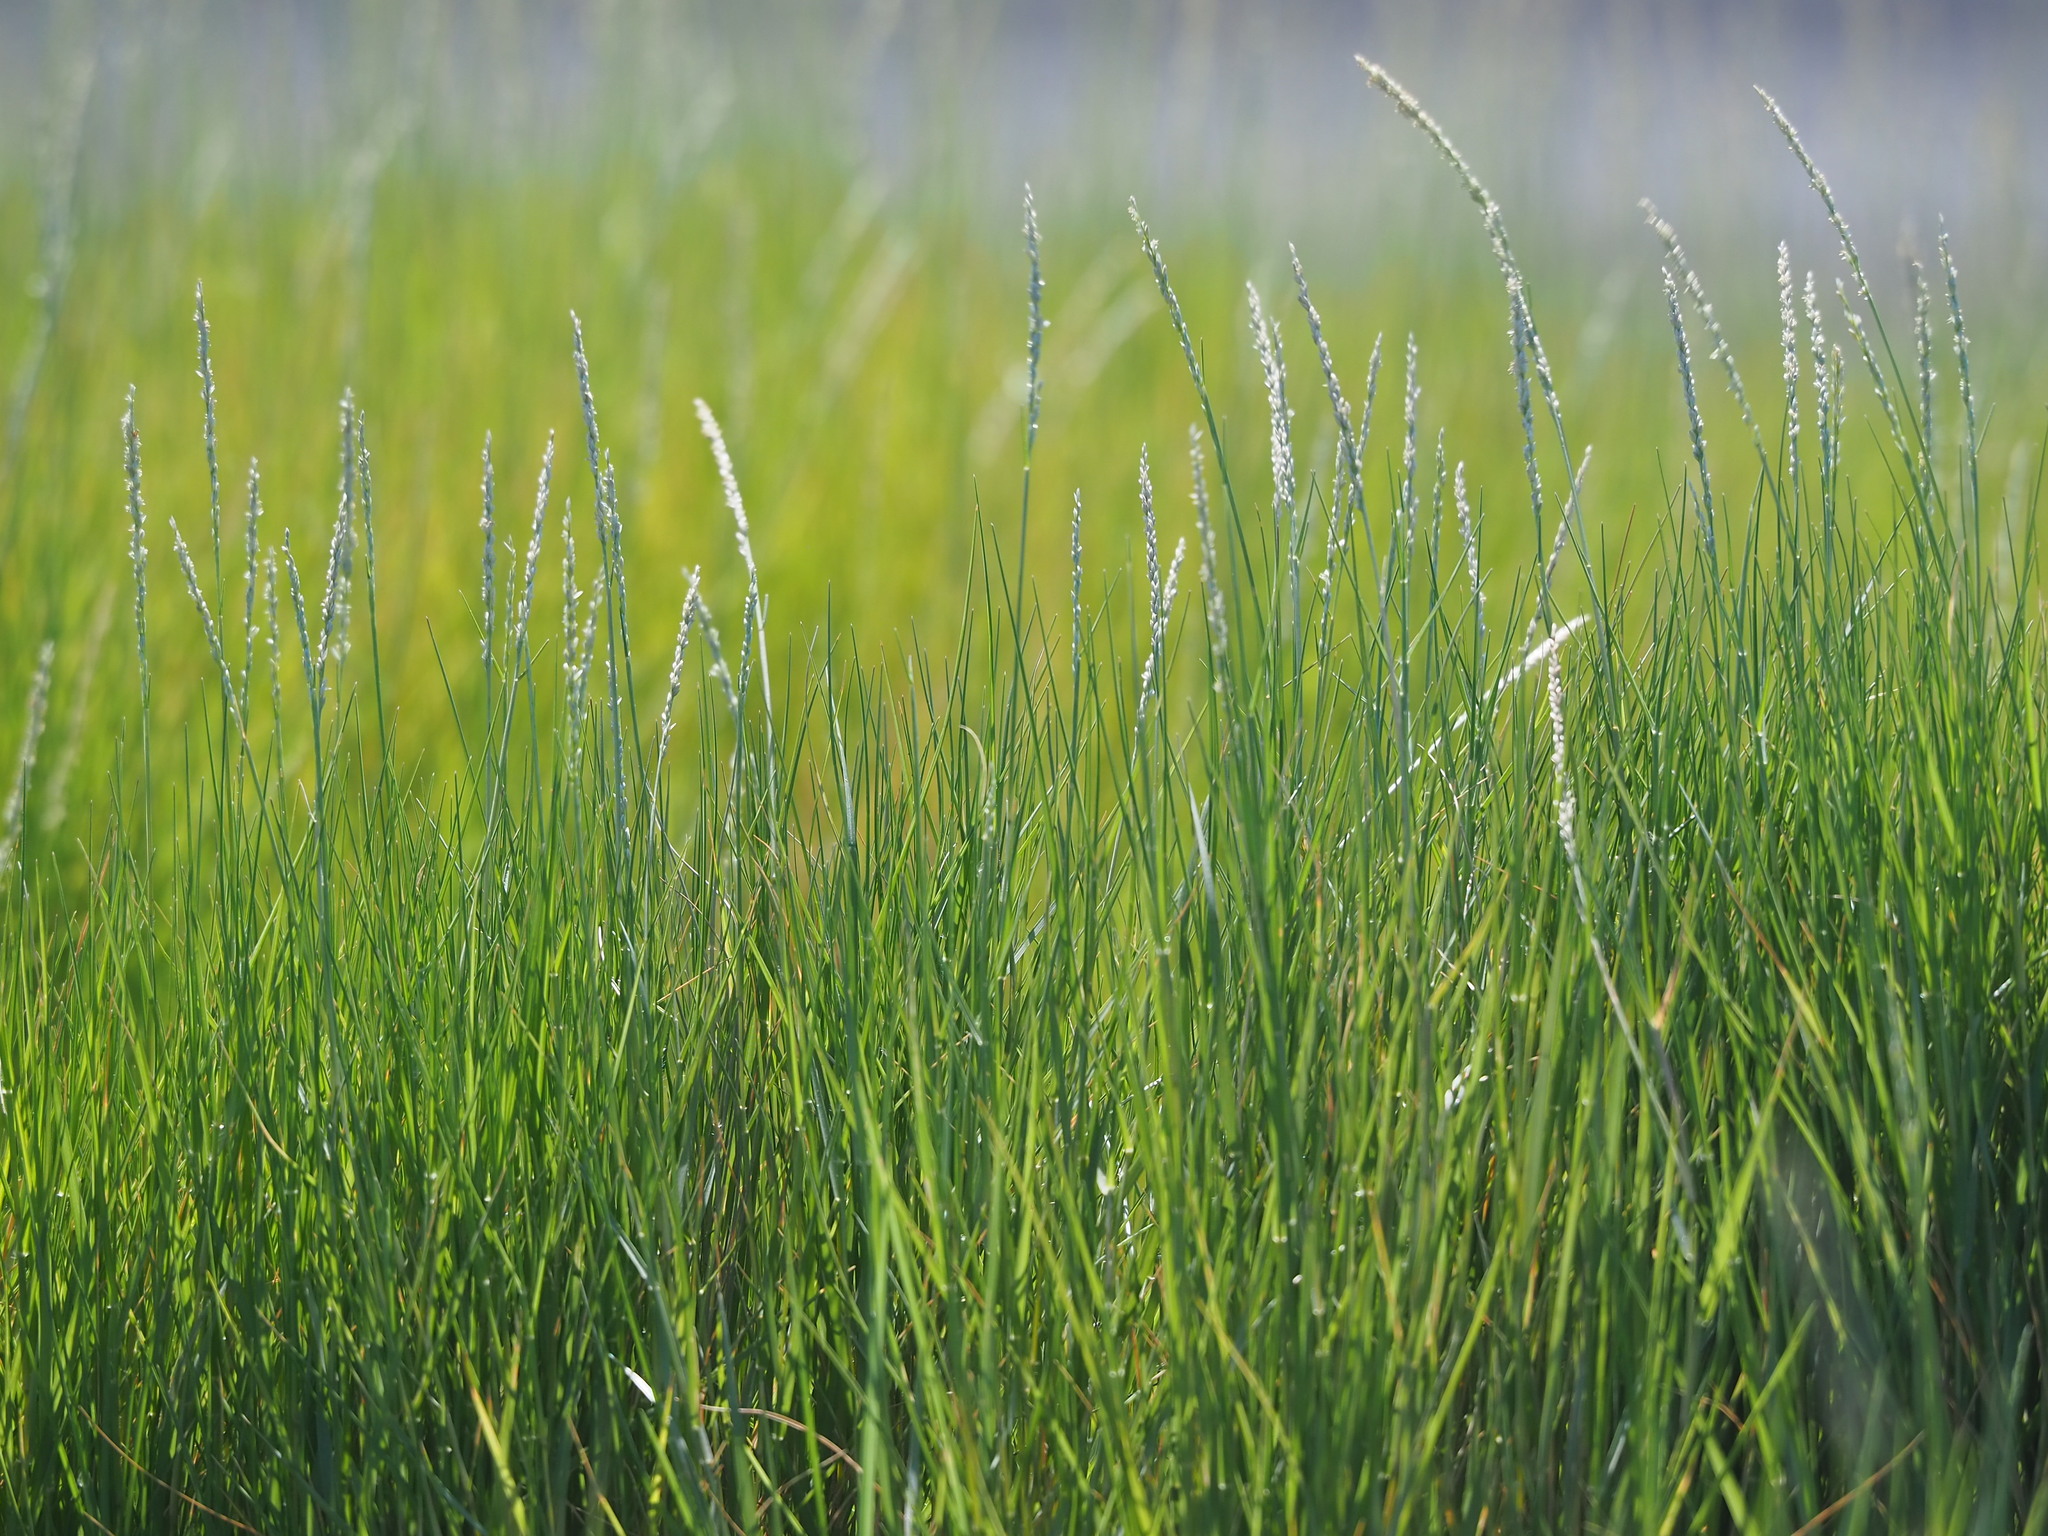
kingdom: Plantae
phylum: Tracheophyta
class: Liliopsida
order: Poales
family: Poaceae
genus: Sporobolus
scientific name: Sporobolus virginicus
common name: Beach dropseed
